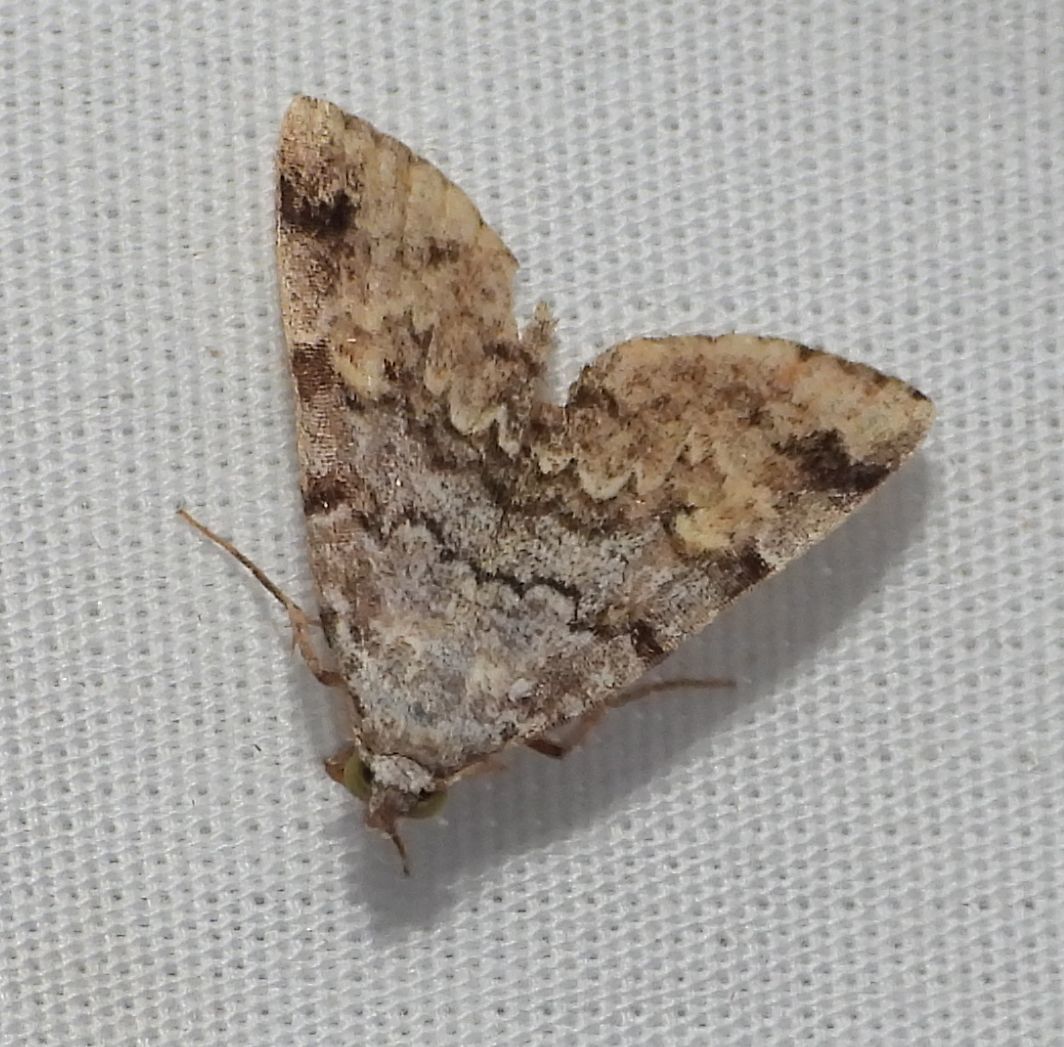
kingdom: Animalia
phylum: Arthropoda
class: Insecta
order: Lepidoptera
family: Erebidae
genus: Idia
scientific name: Idia americalis
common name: American idia moth
